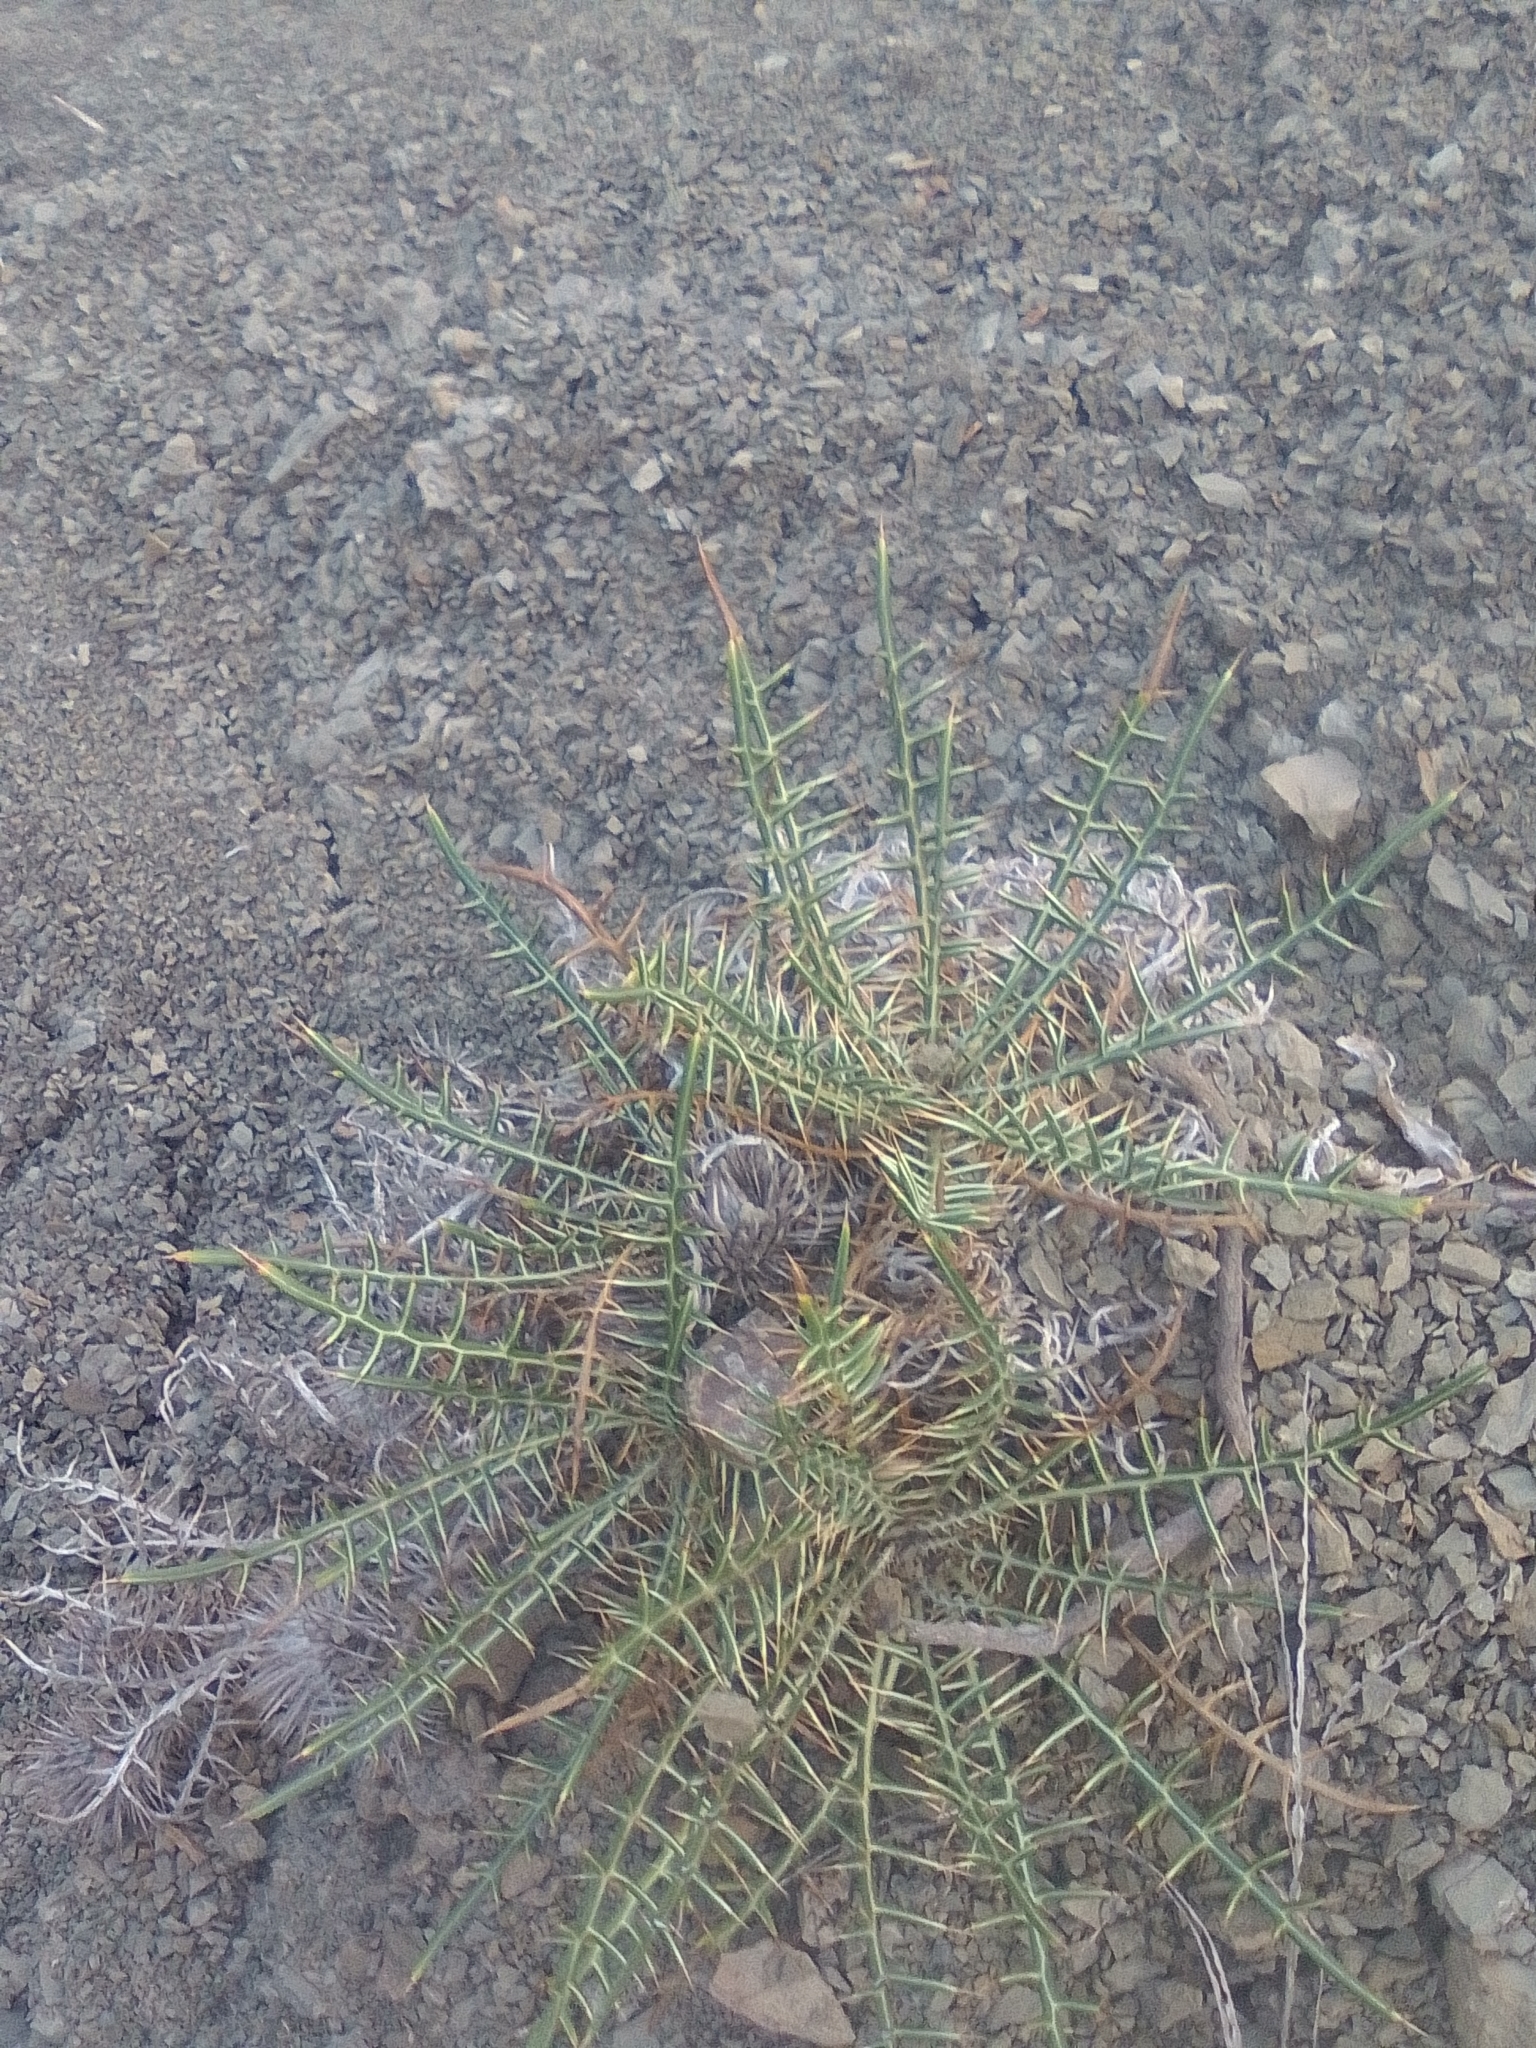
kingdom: Plantae
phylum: Tracheophyta
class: Magnoliopsida
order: Asterales
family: Asteraceae
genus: Ptilostemon
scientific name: Ptilostemon echinocephalus
